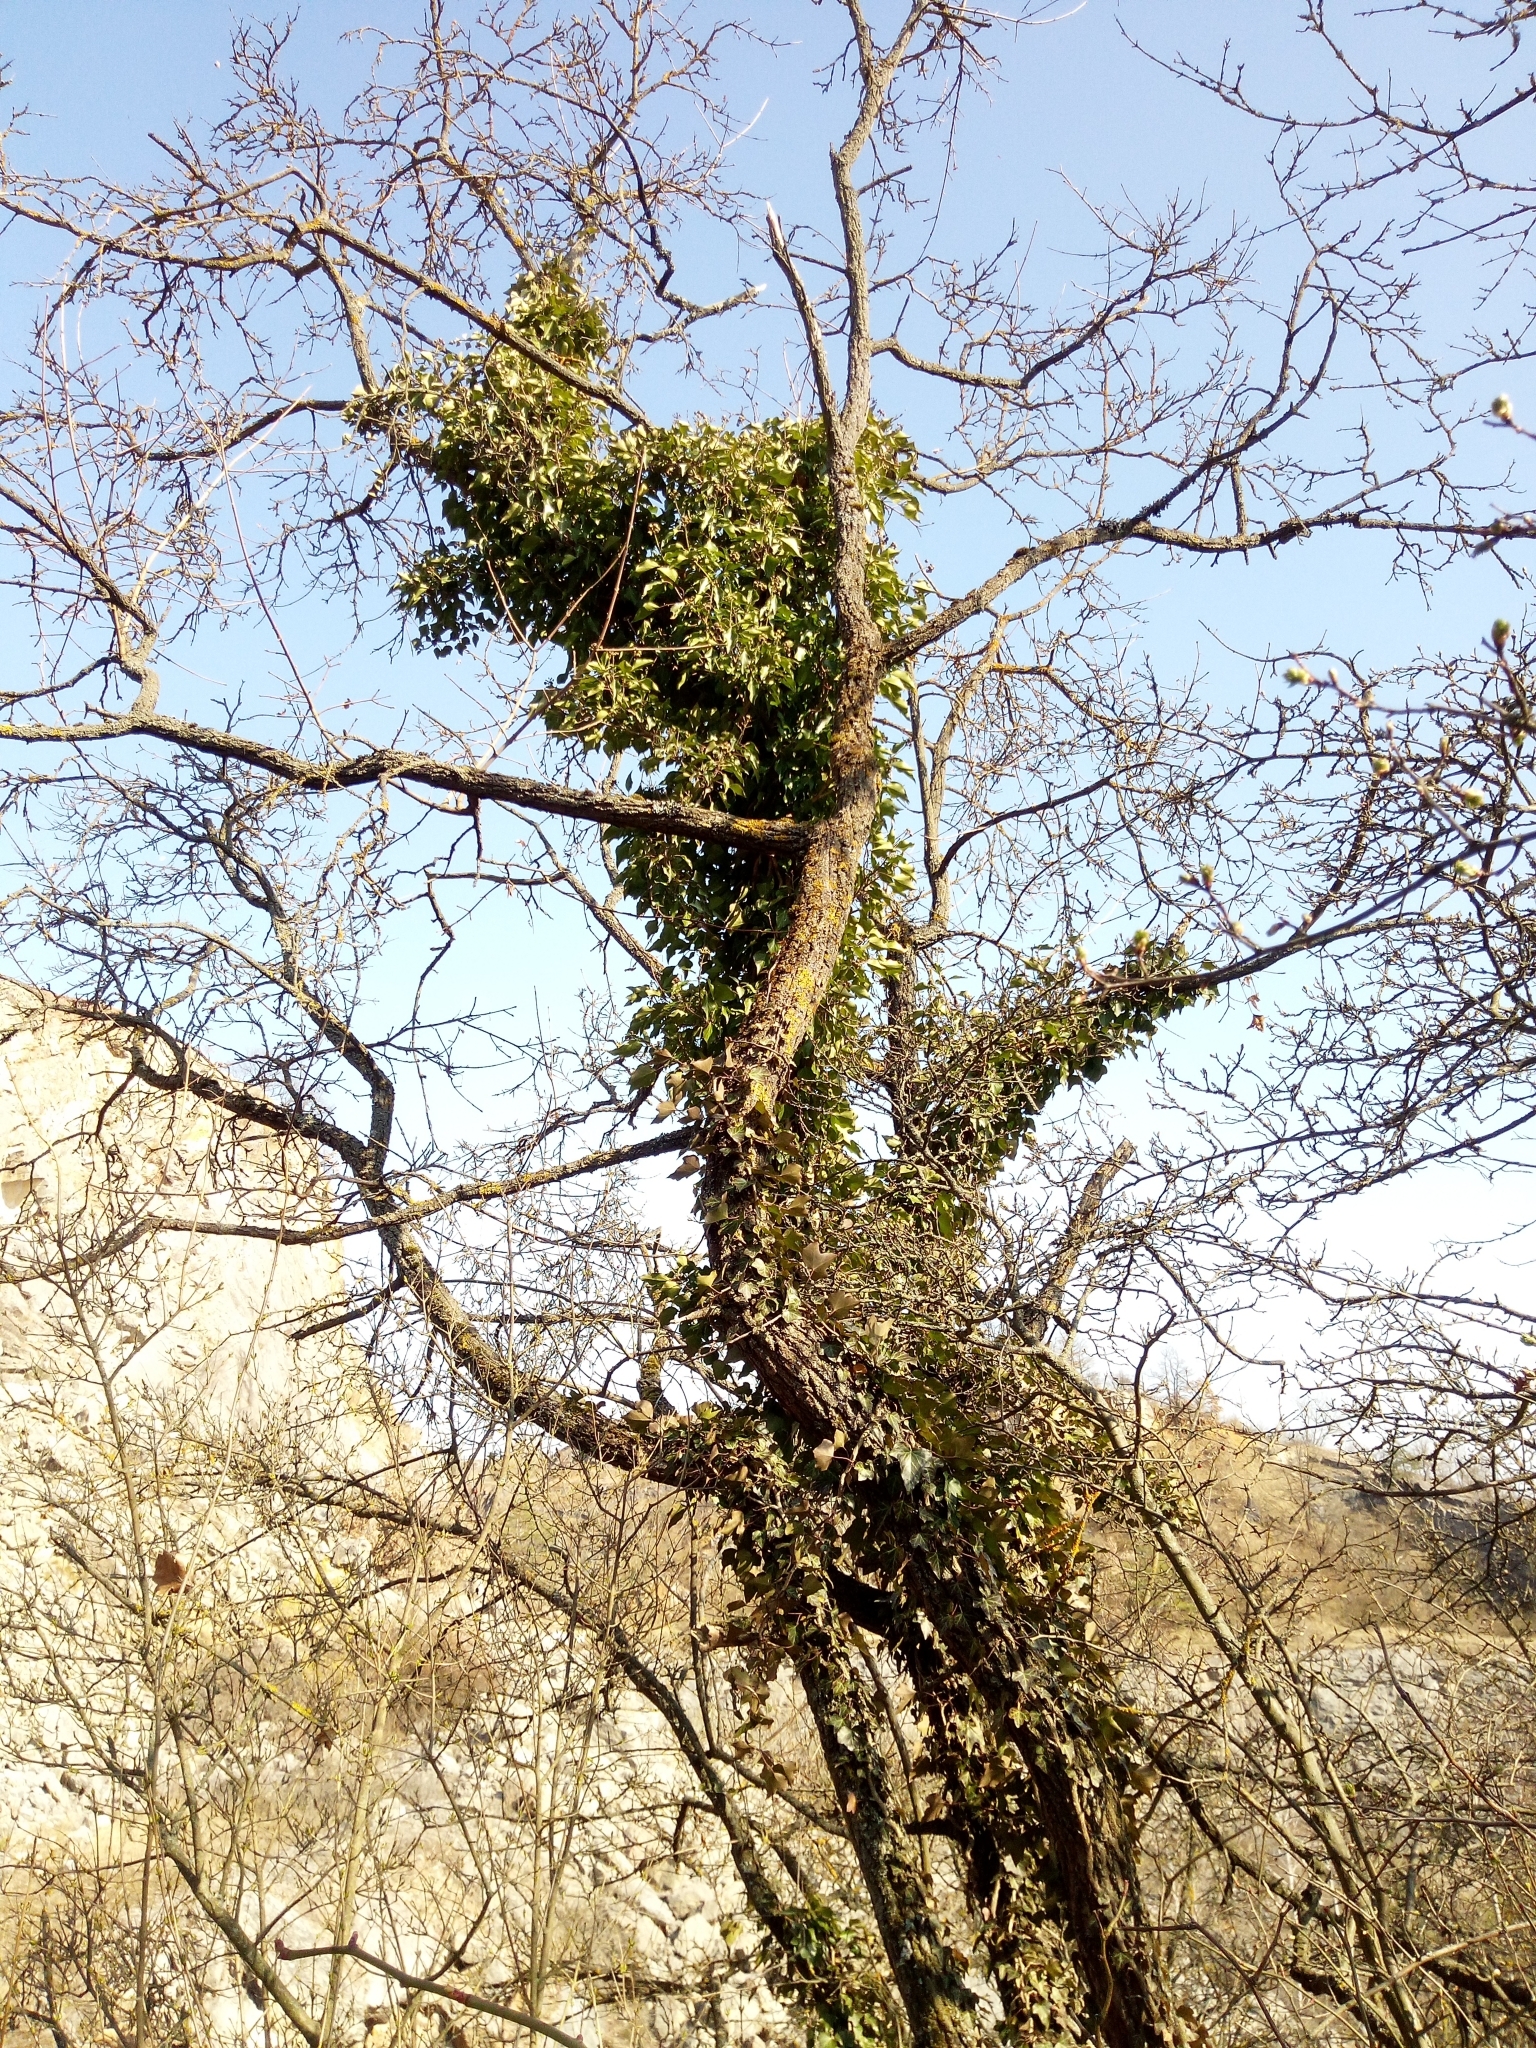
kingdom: Plantae
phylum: Tracheophyta
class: Magnoliopsida
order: Apiales
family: Araliaceae
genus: Hedera
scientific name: Hedera helix
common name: Ivy
